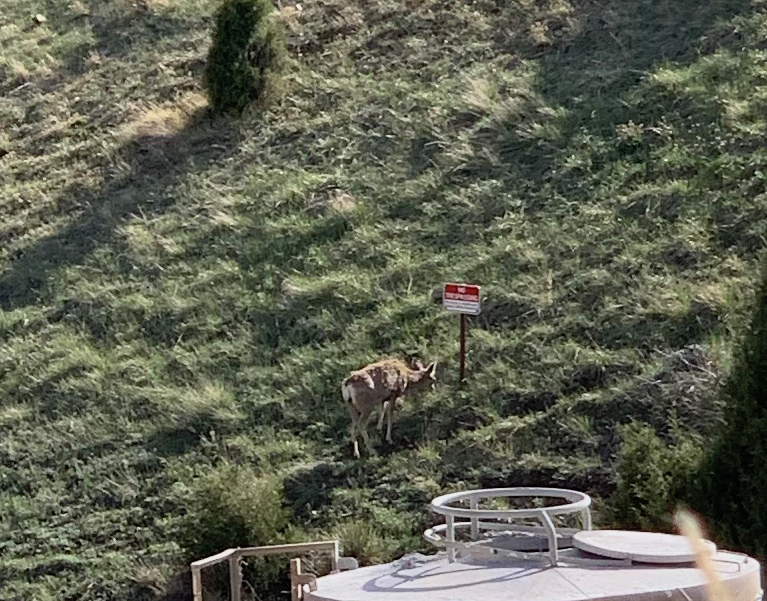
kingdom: Animalia
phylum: Chordata
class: Mammalia
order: Artiodactyla
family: Cervidae
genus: Odocoileus
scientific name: Odocoileus hemionus
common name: Mule deer
